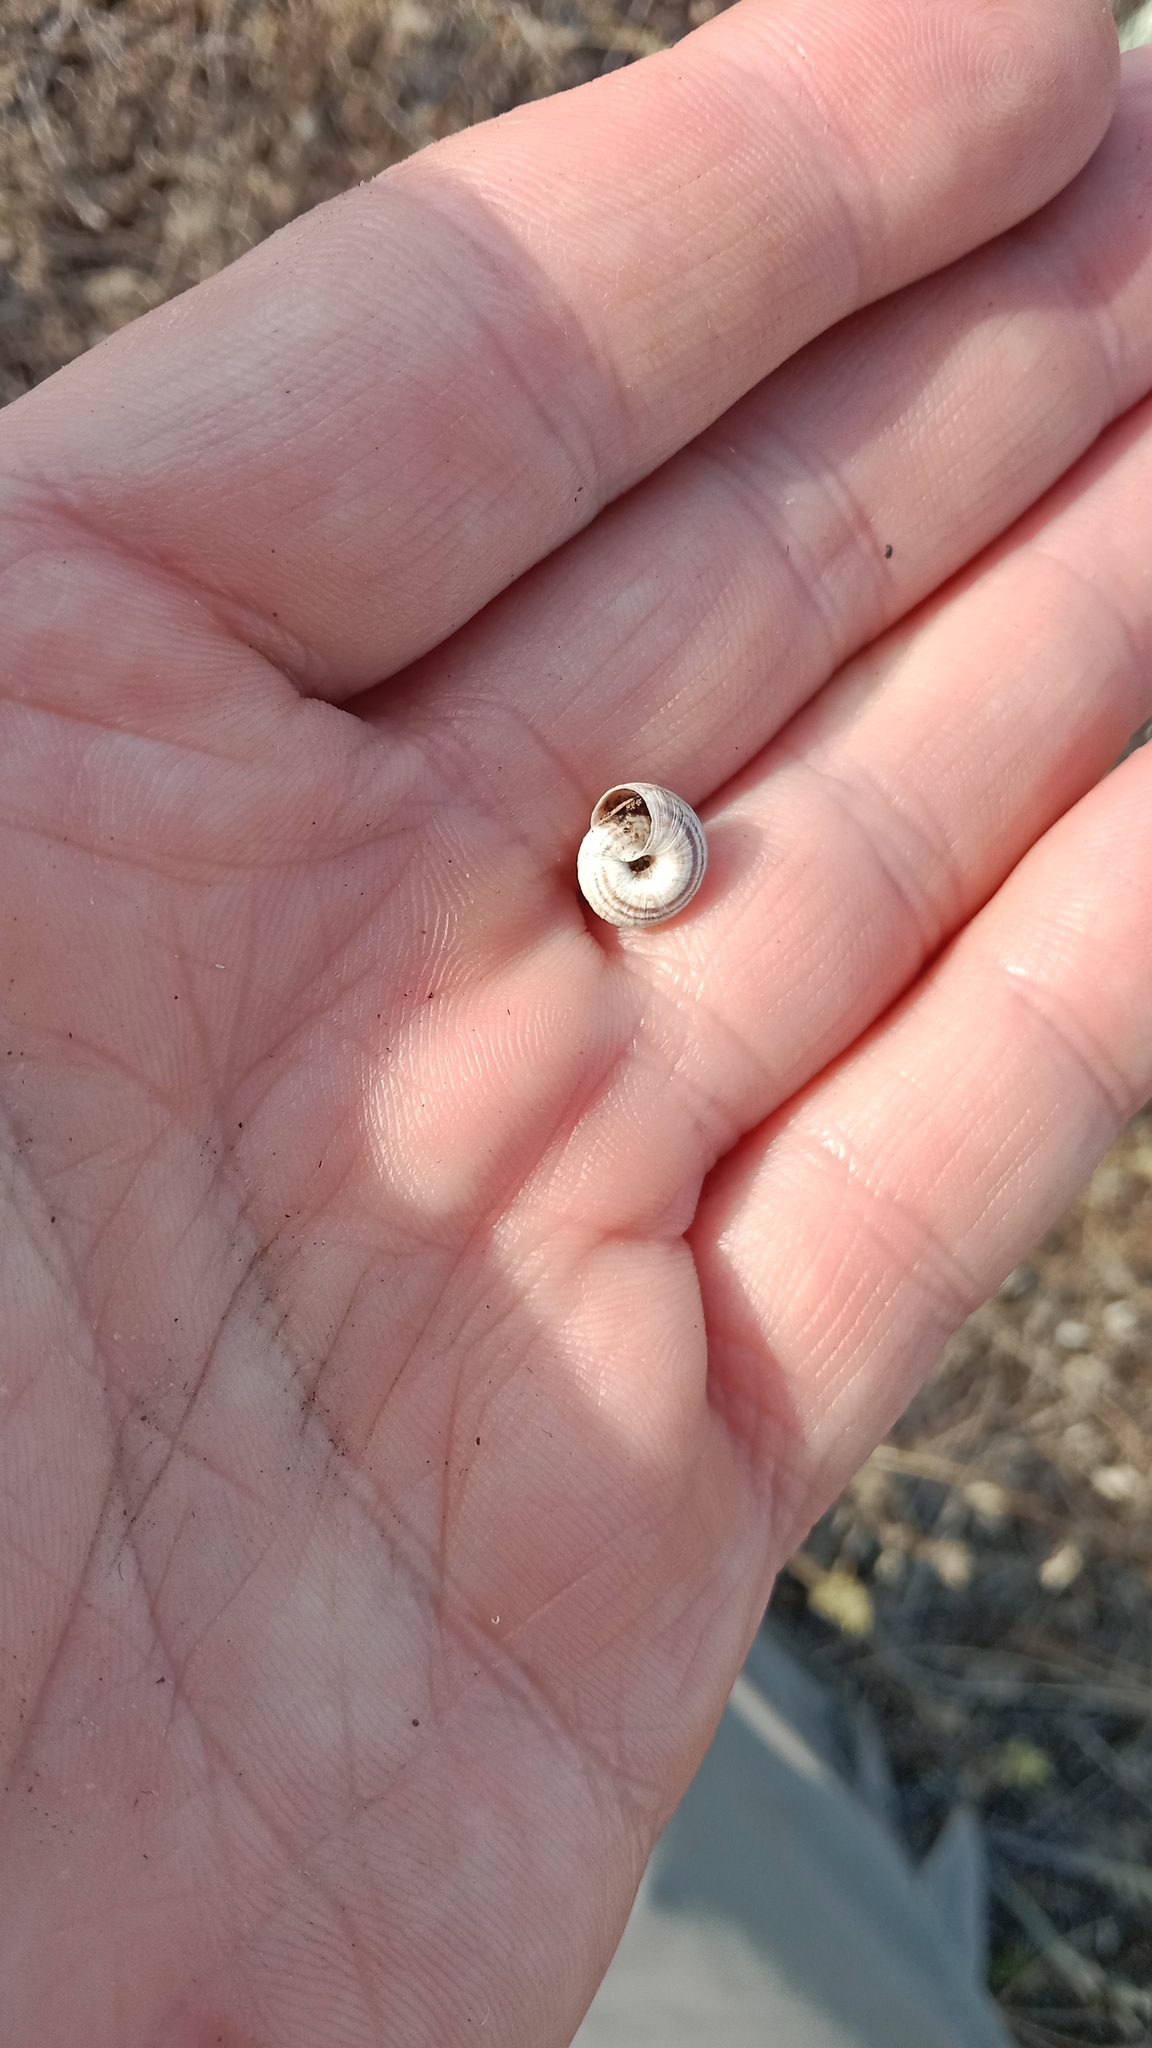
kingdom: Animalia
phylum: Mollusca
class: Gastropoda
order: Stylommatophora
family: Geomitridae
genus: Helicopsis
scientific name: Helicopsis lunulata
